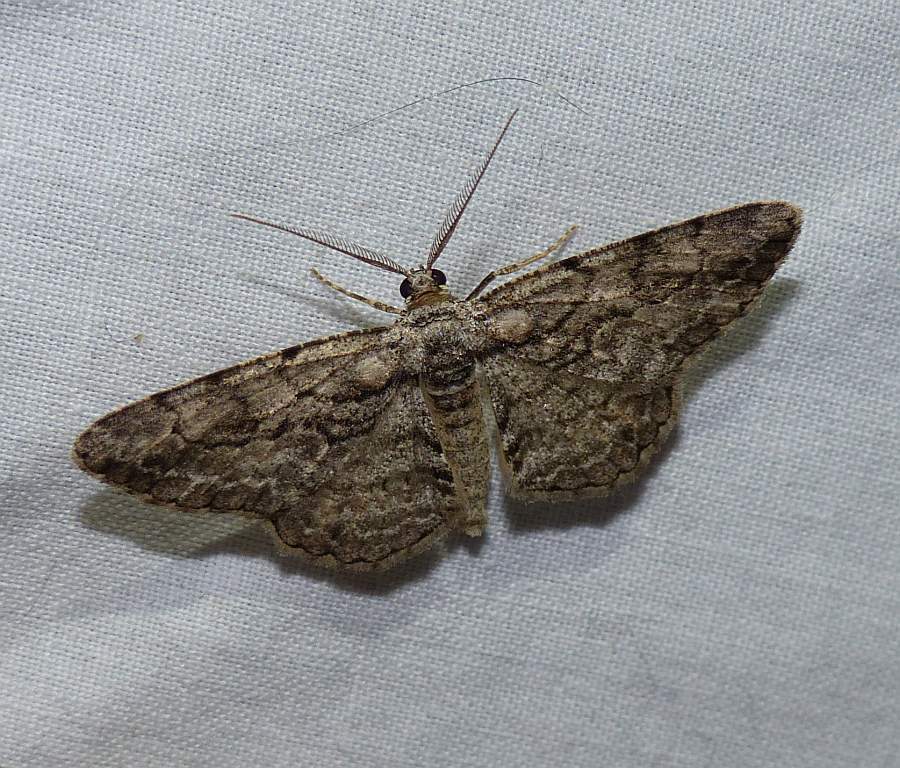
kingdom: Animalia
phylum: Arthropoda
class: Insecta
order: Lepidoptera
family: Geometridae
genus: Anavitrinella
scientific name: Anavitrinella pampinaria
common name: Common gray
